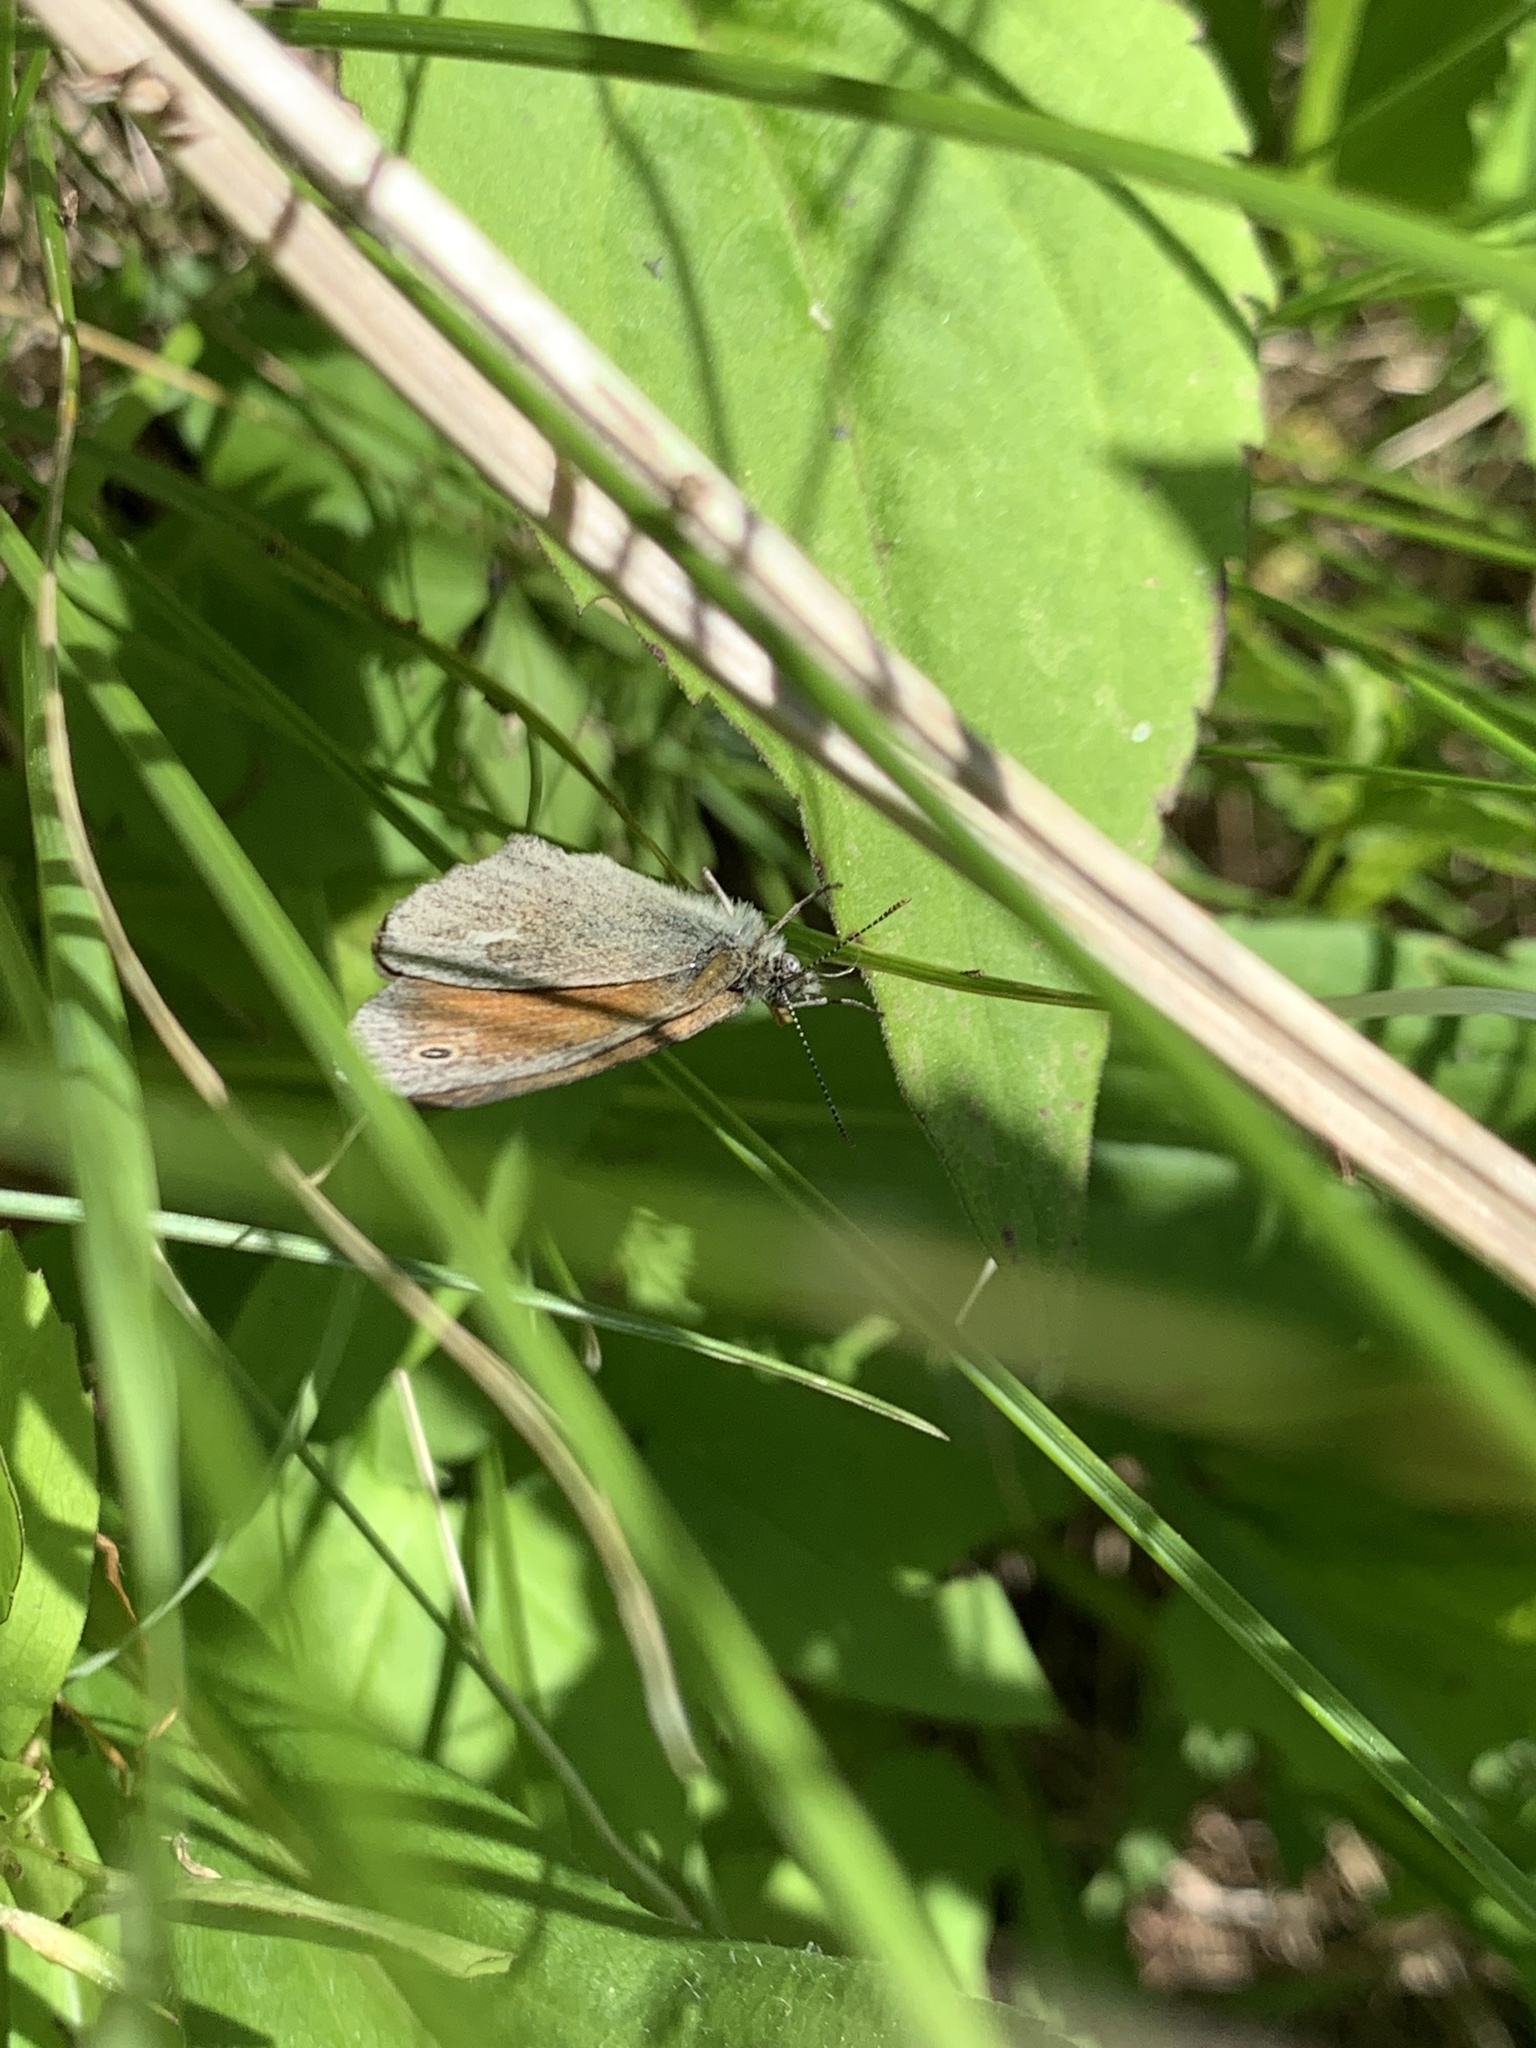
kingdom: Animalia
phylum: Arthropoda
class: Insecta
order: Lepidoptera
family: Nymphalidae
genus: Coenonympha
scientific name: Coenonympha california
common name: Common ringlet
